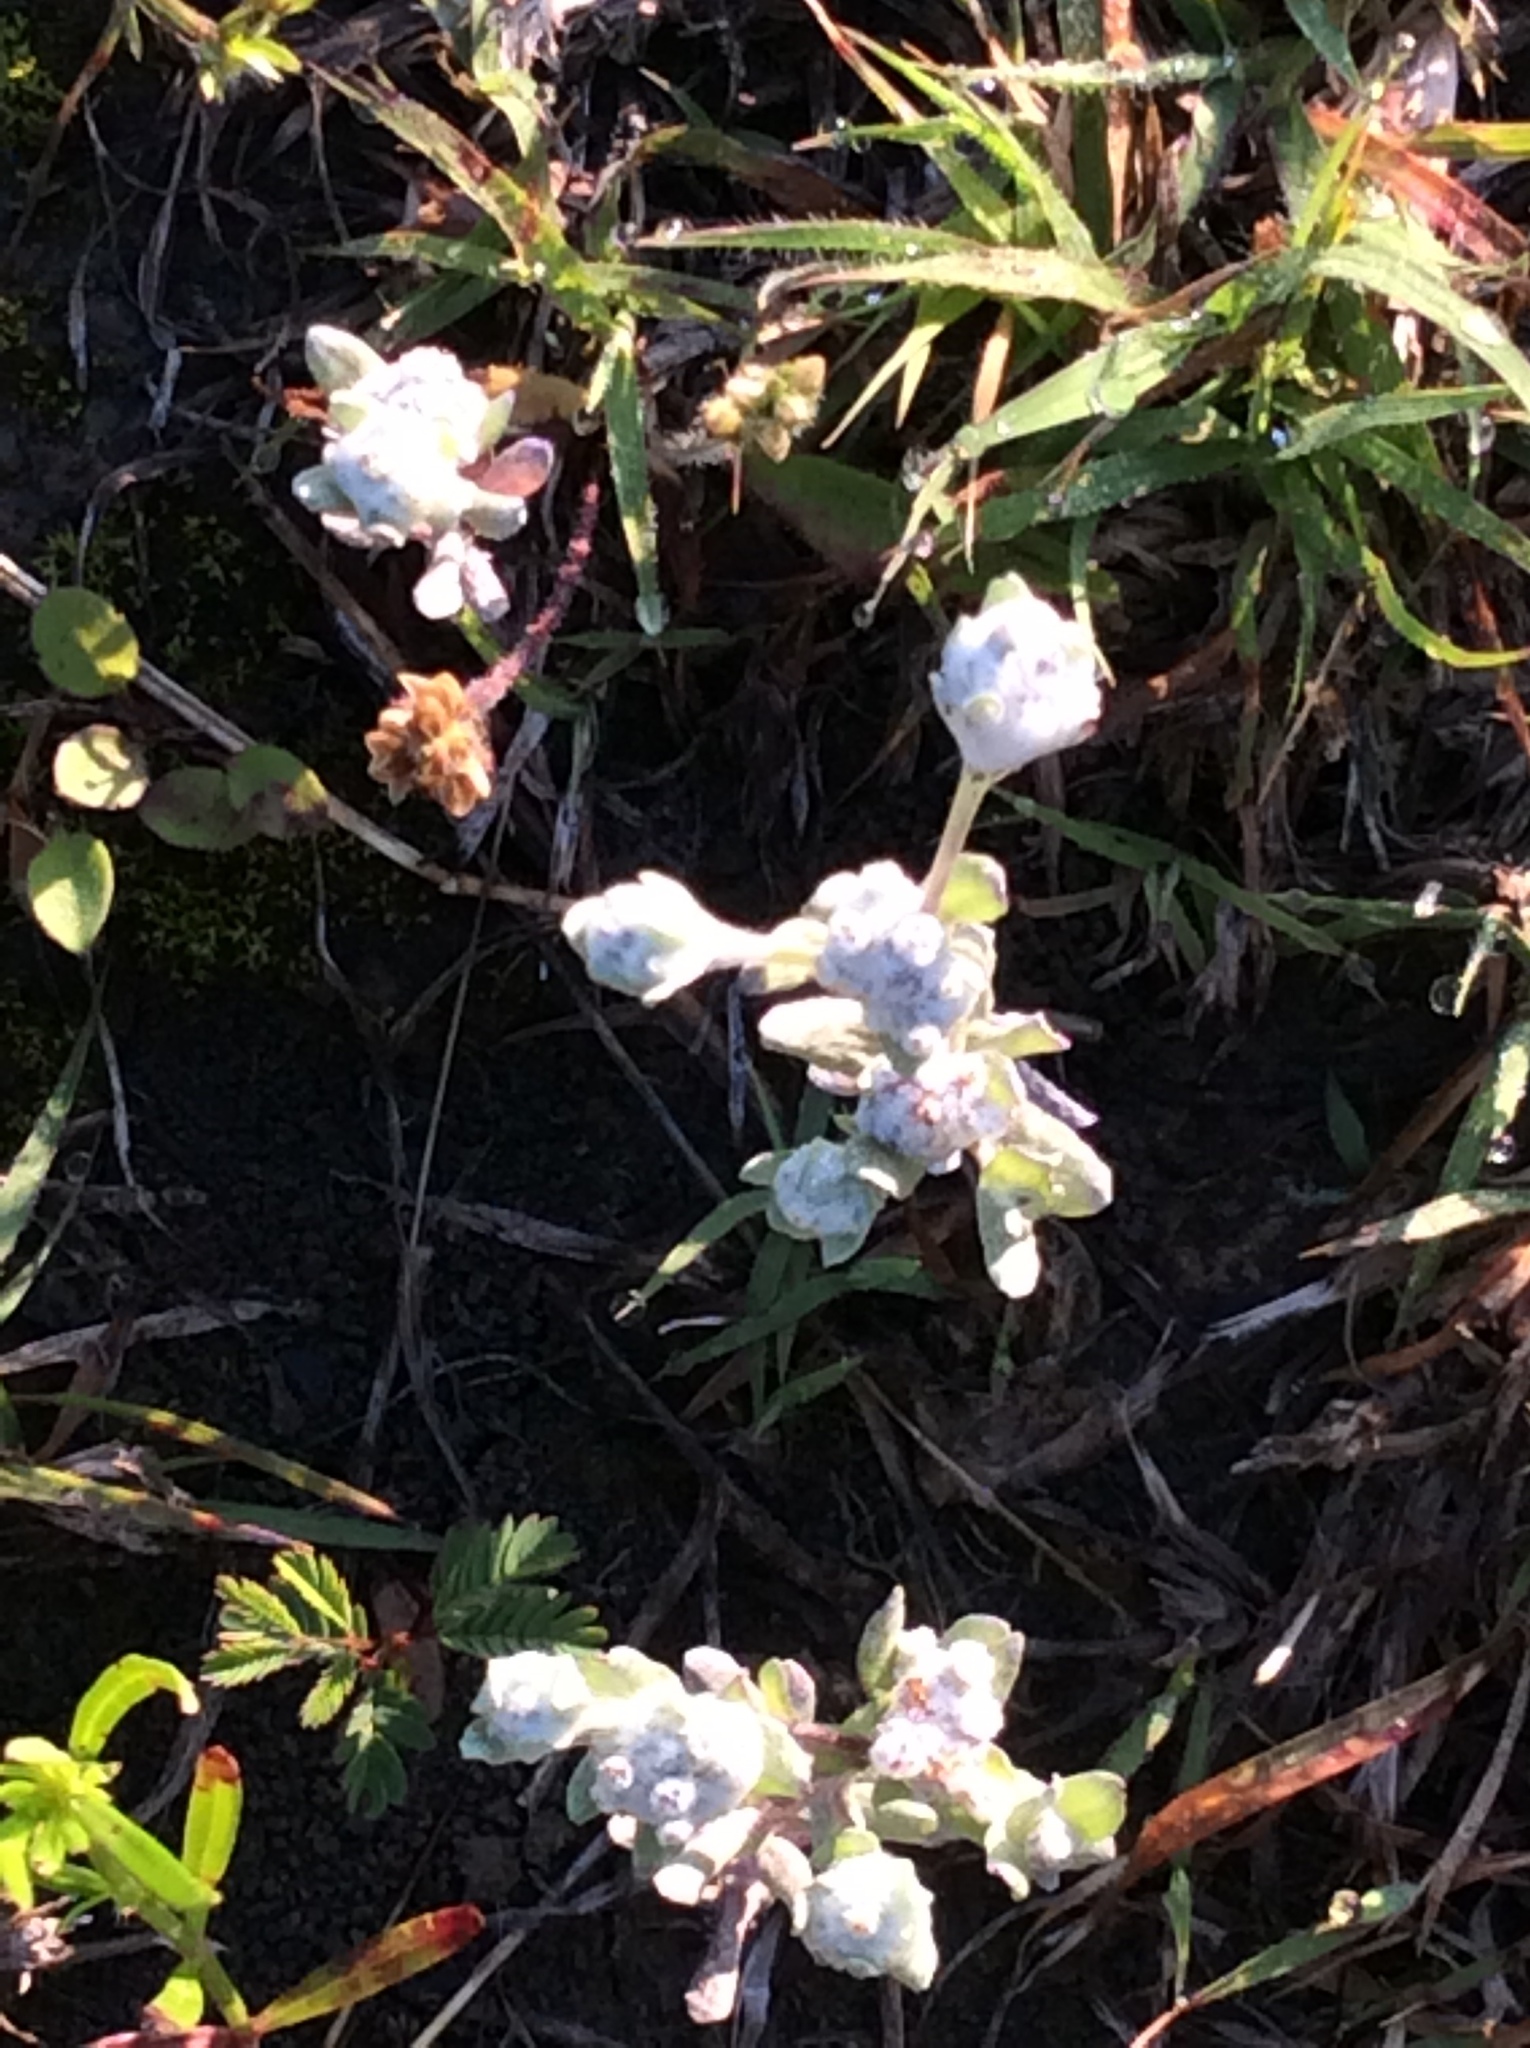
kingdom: Plantae
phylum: Tracheophyta
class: Magnoliopsida
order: Asterales
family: Asteraceae
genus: Diaperia
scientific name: Diaperia verna
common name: Many-stem rabbit-tobacco
